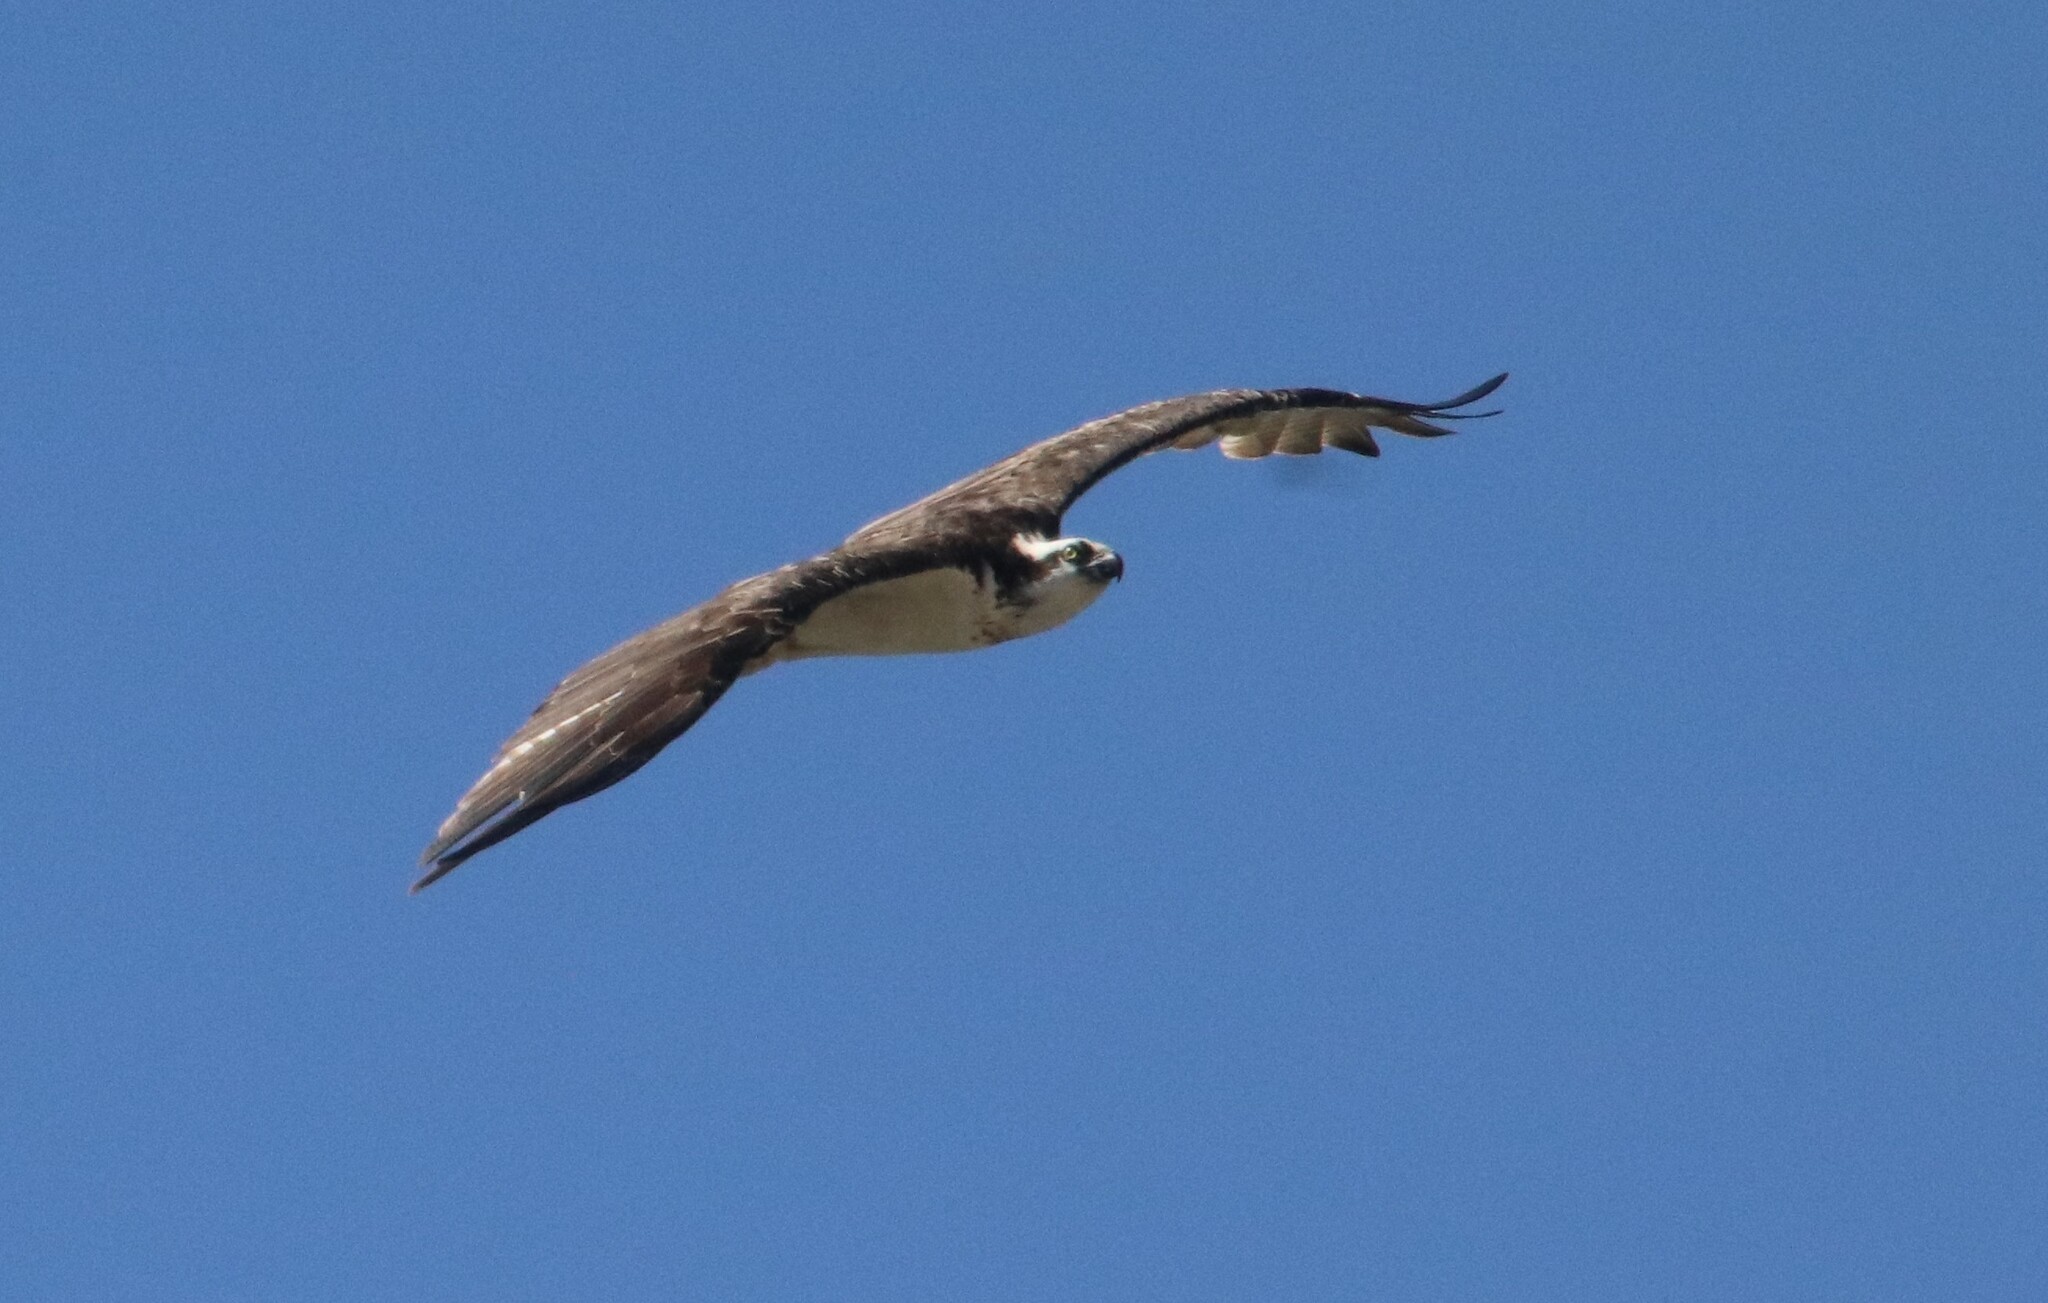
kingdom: Animalia
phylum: Chordata
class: Aves
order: Accipitriformes
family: Pandionidae
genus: Pandion
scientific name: Pandion haliaetus
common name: Osprey
